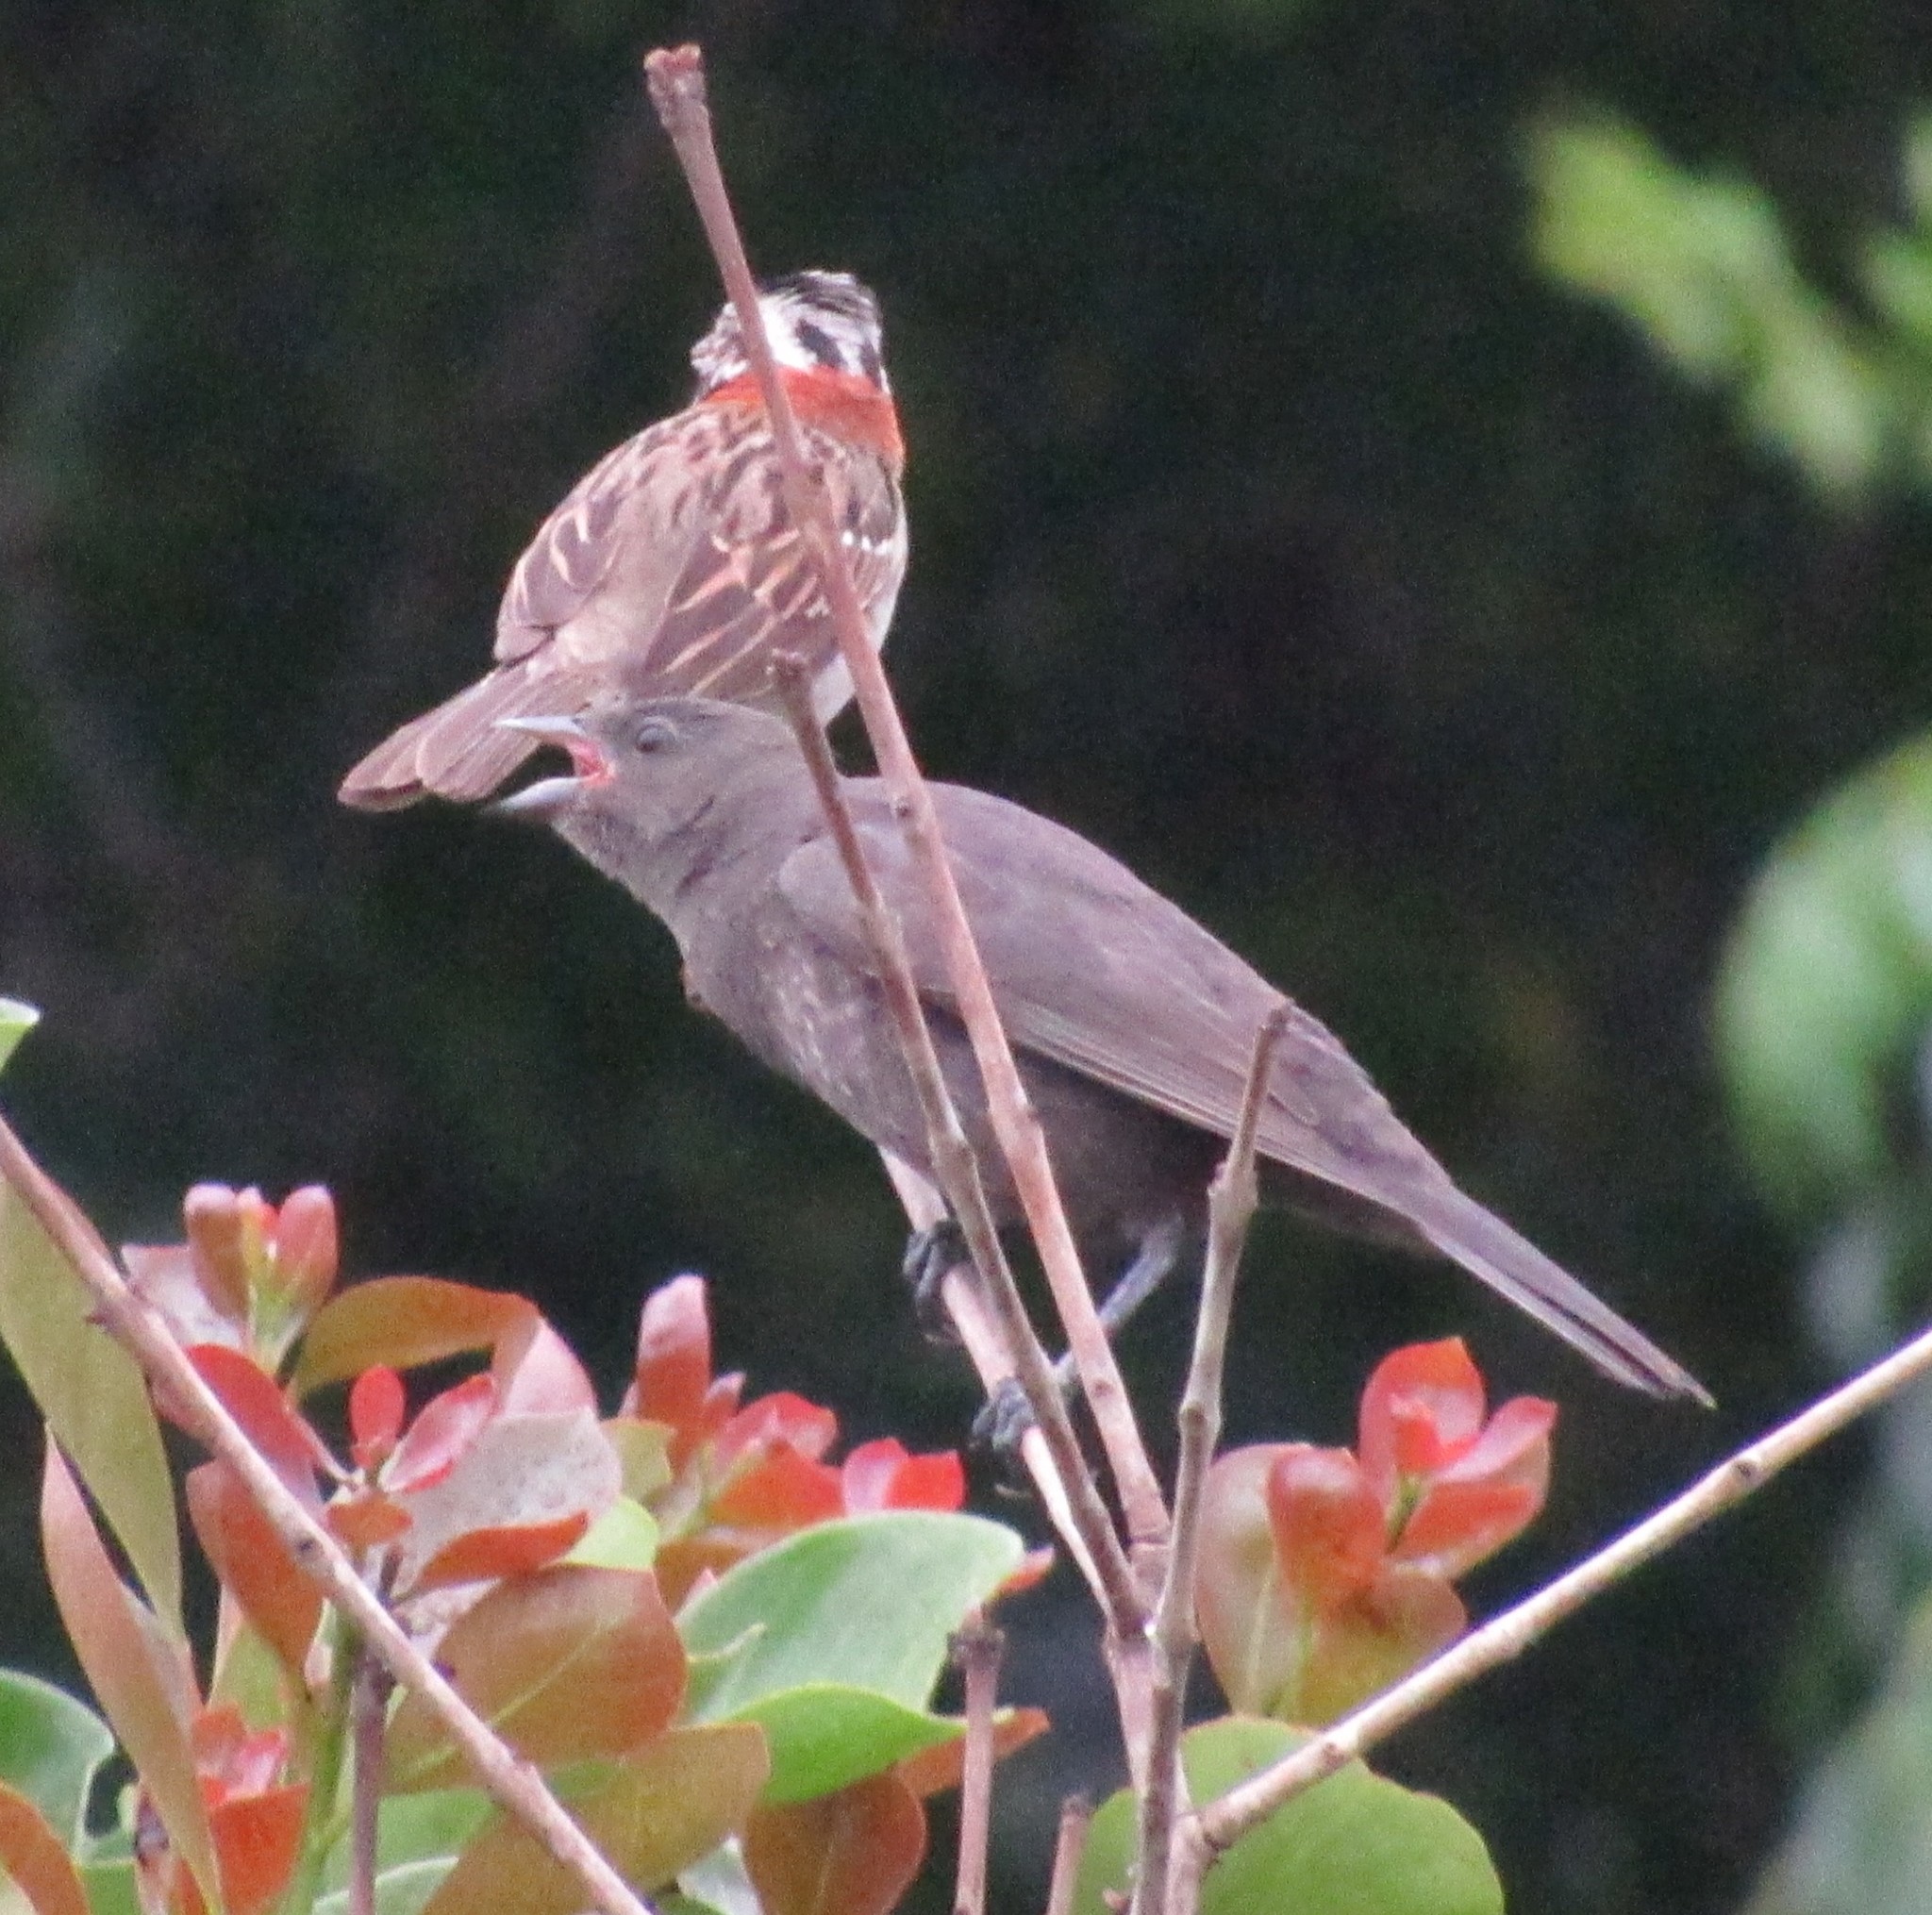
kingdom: Animalia
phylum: Chordata
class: Aves
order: Passeriformes
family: Icteridae
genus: Molothrus
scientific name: Molothrus bonariensis
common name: Shiny cowbird
